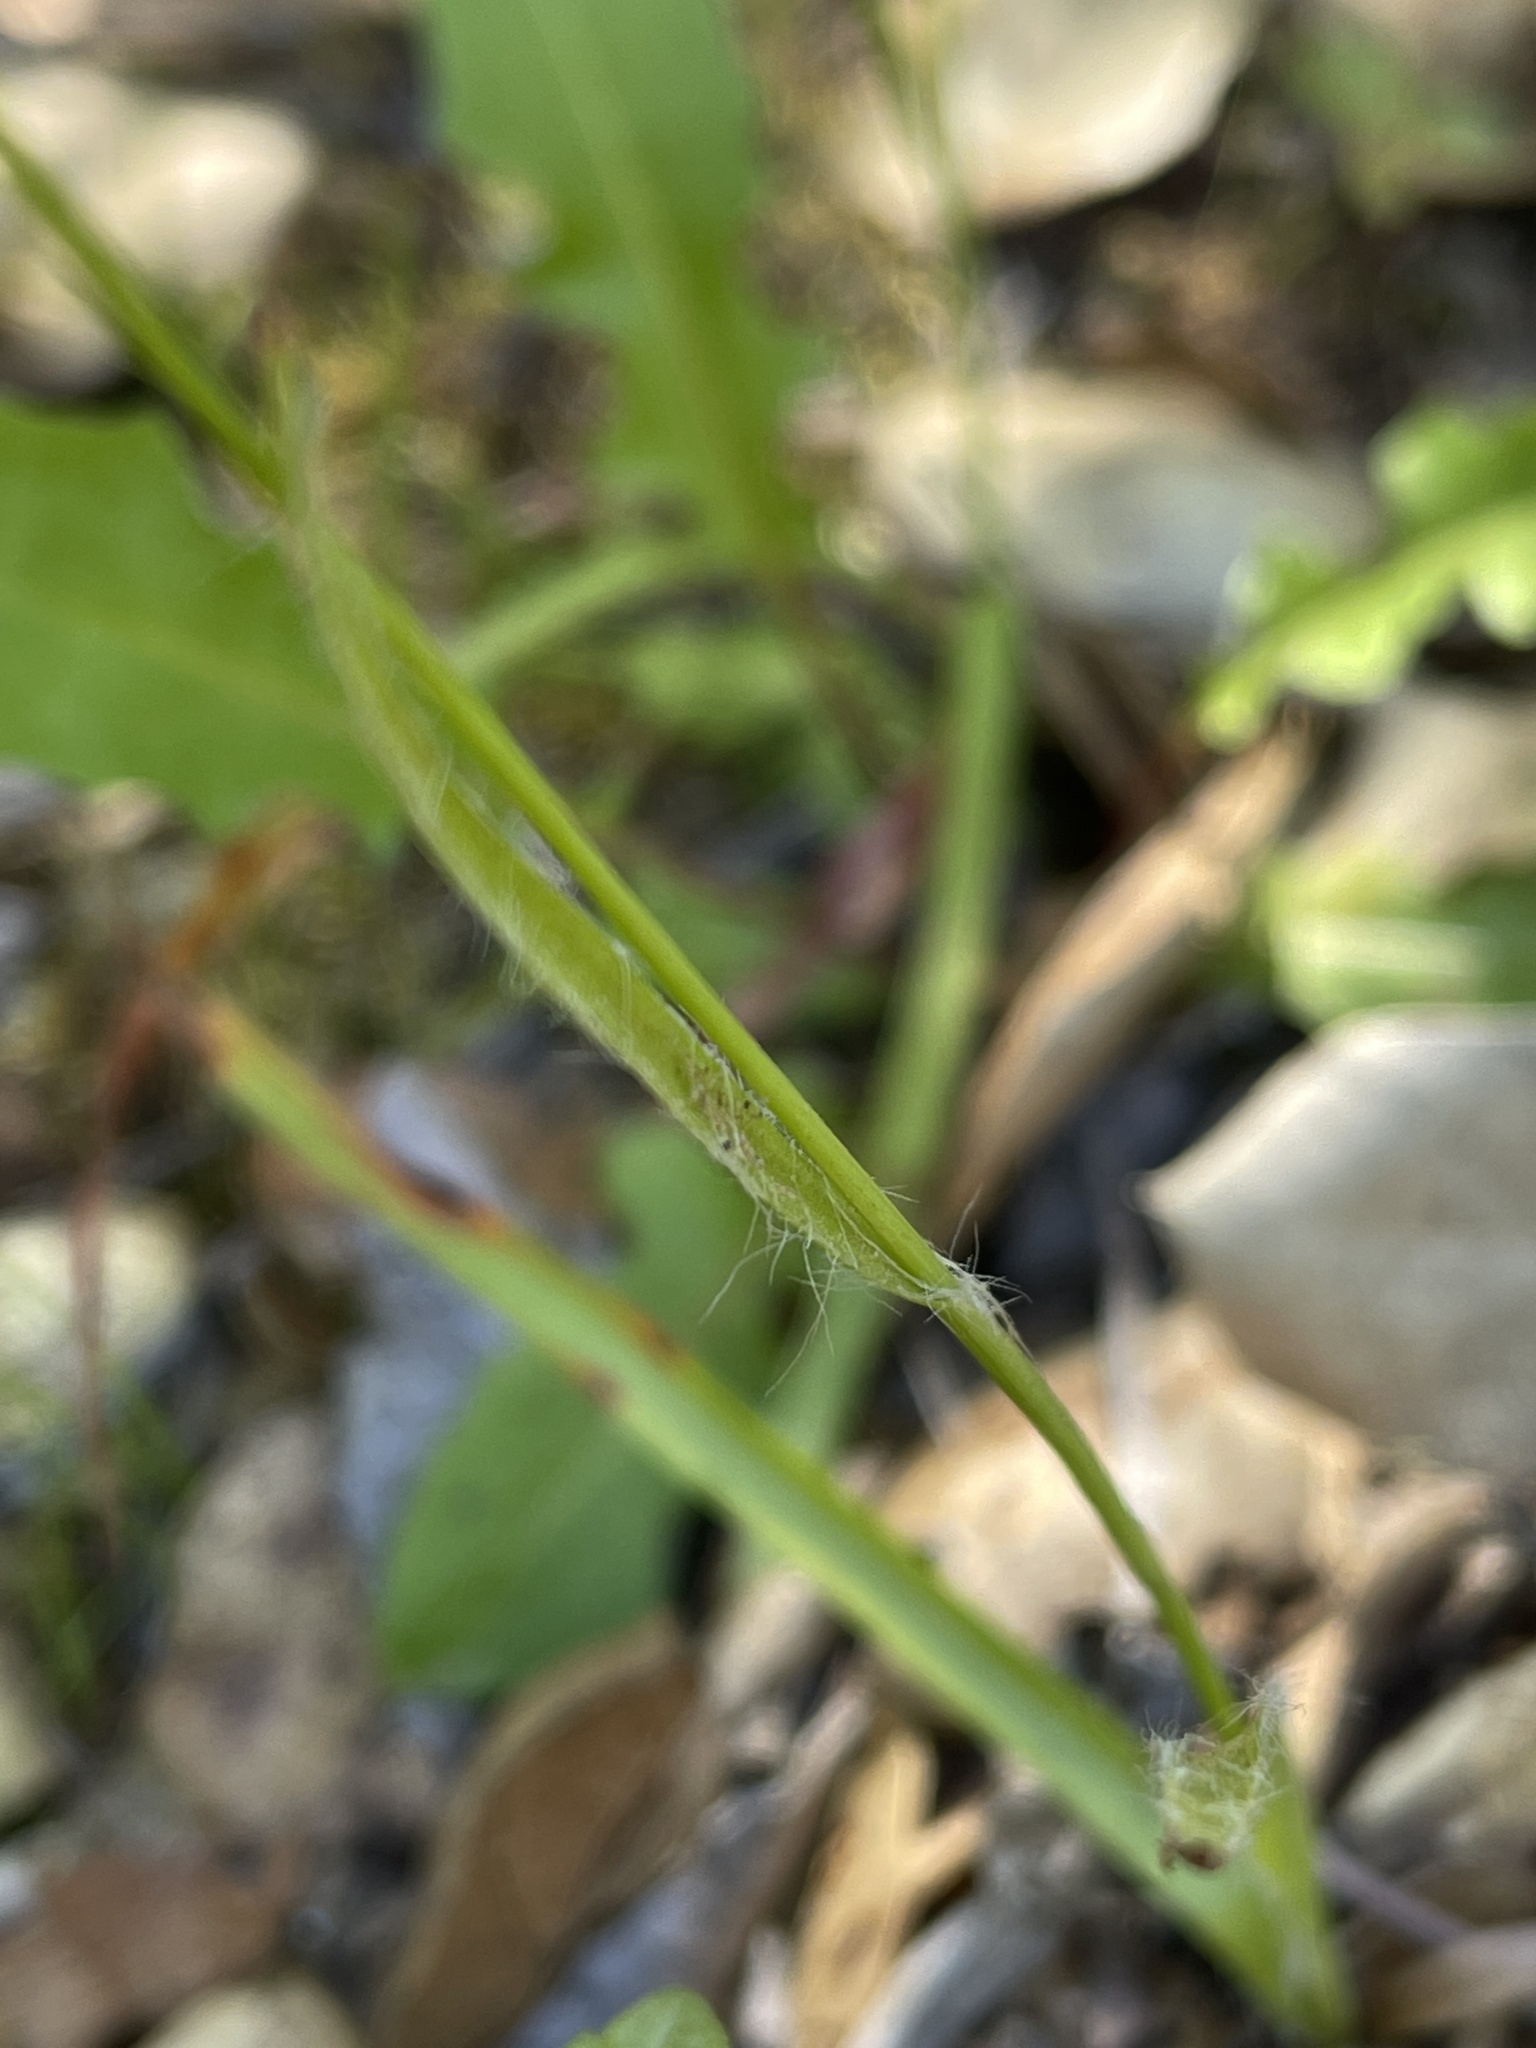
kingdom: Plantae
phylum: Tracheophyta
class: Liliopsida
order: Poales
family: Juncaceae
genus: Luzula
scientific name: Luzula comosa
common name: Pacific woodrush
